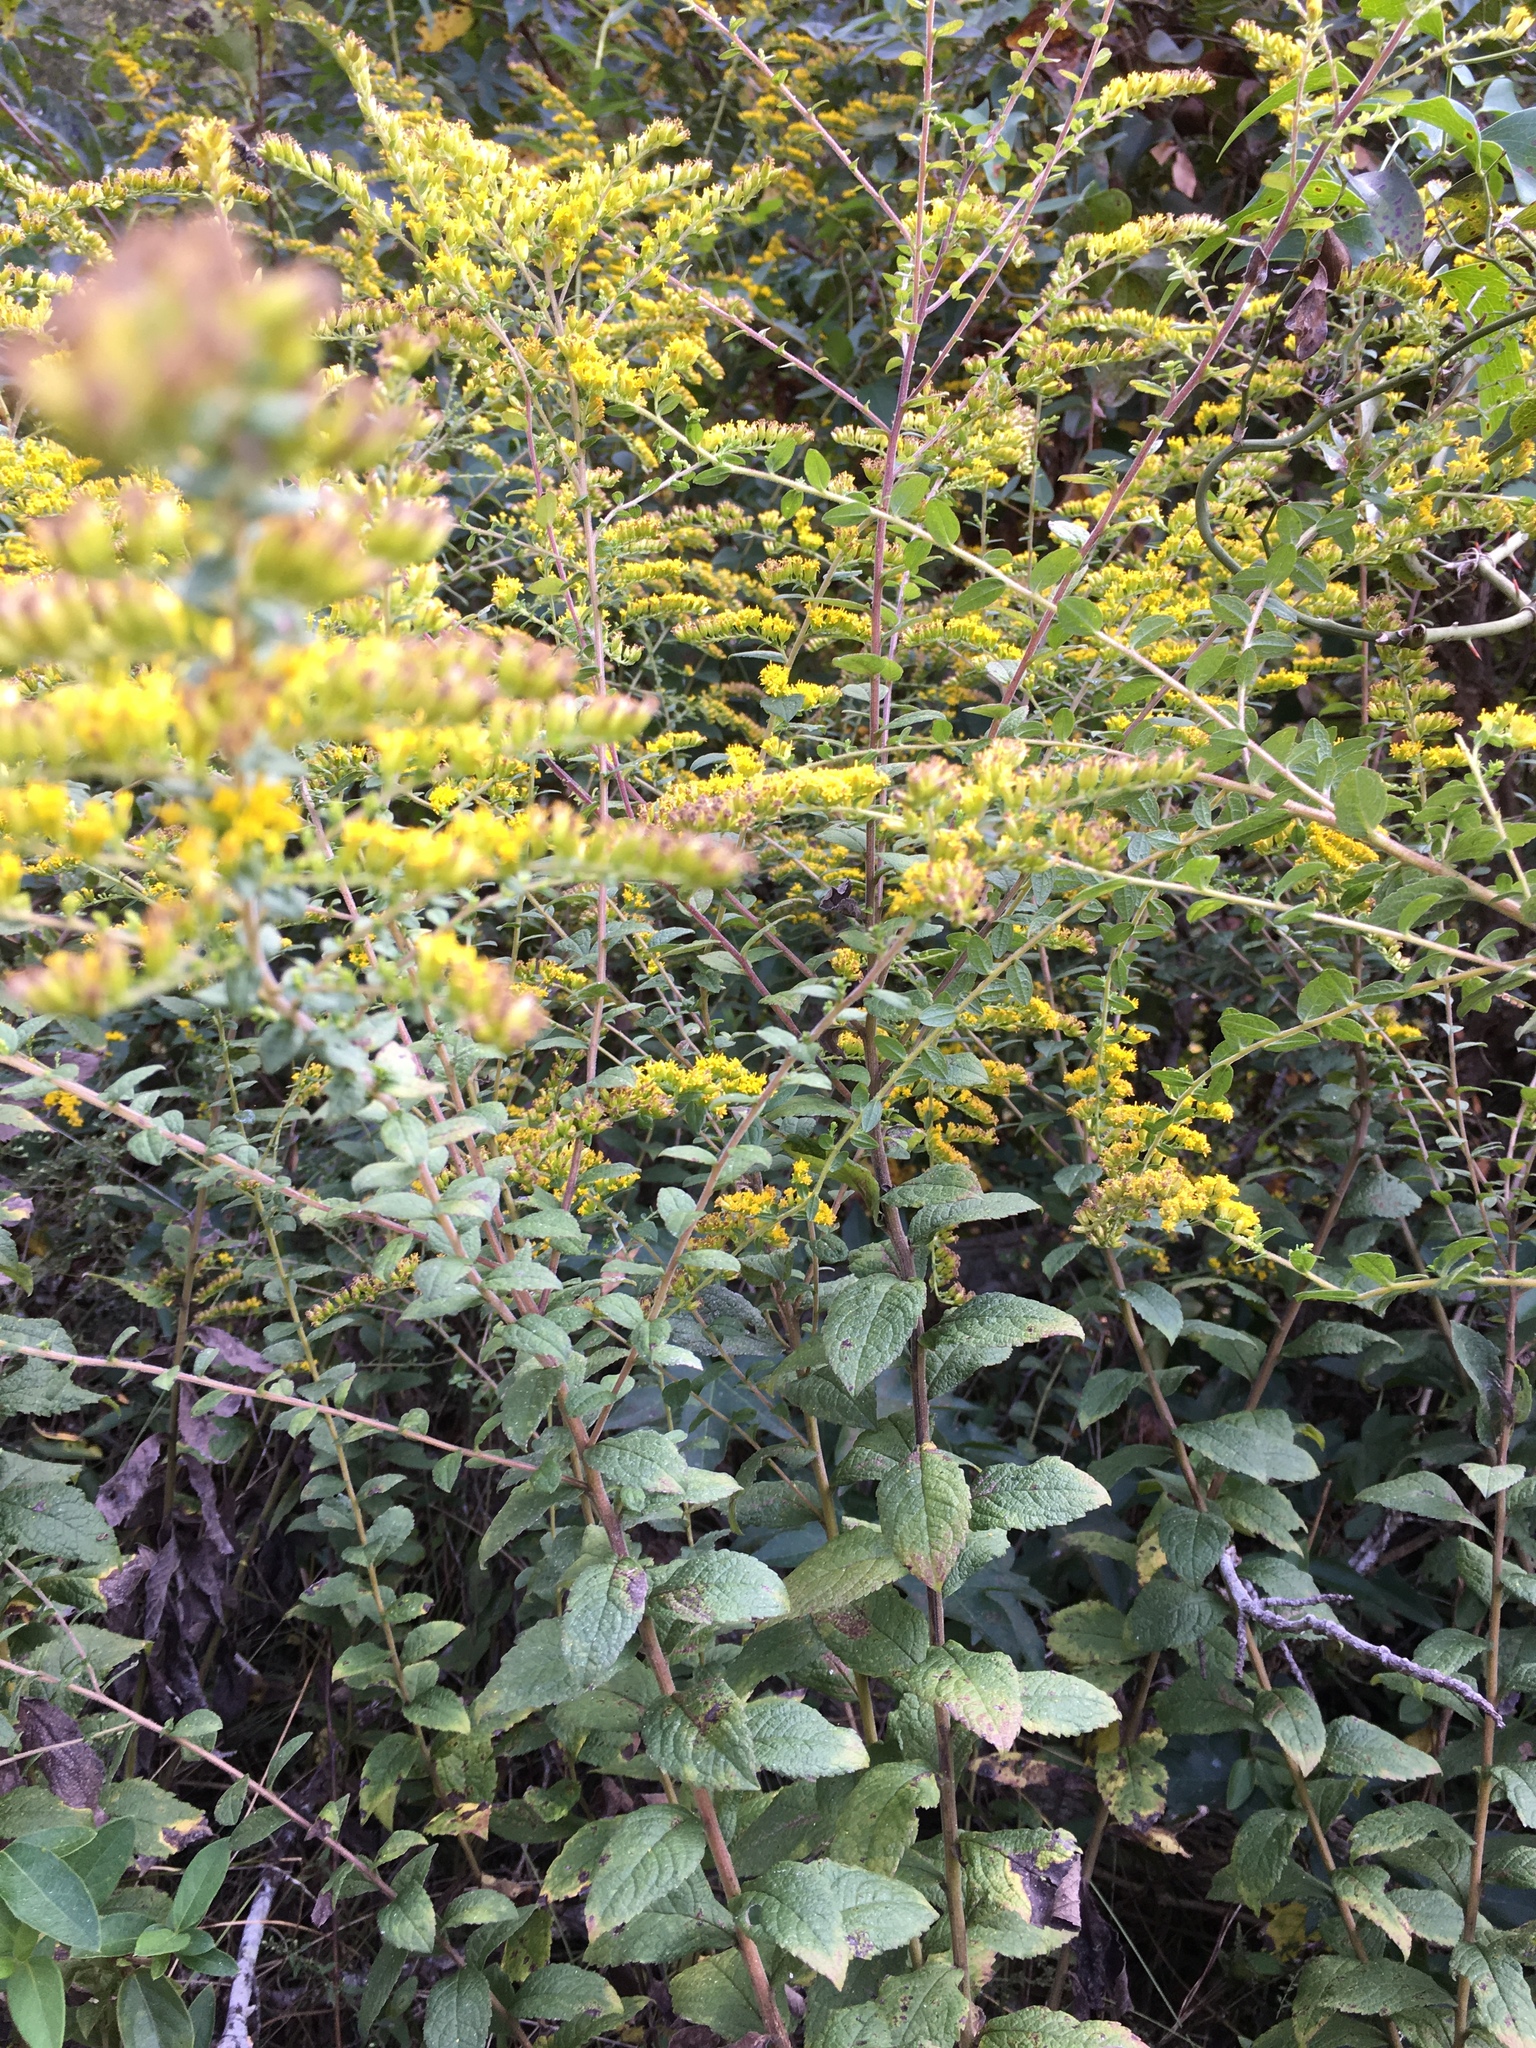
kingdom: Plantae
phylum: Tracheophyta
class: Magnoliopsida
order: Asterales
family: Asteraceae
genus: Solidago
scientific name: Solidago rugosa
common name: Rough-stemmed goldenrod
